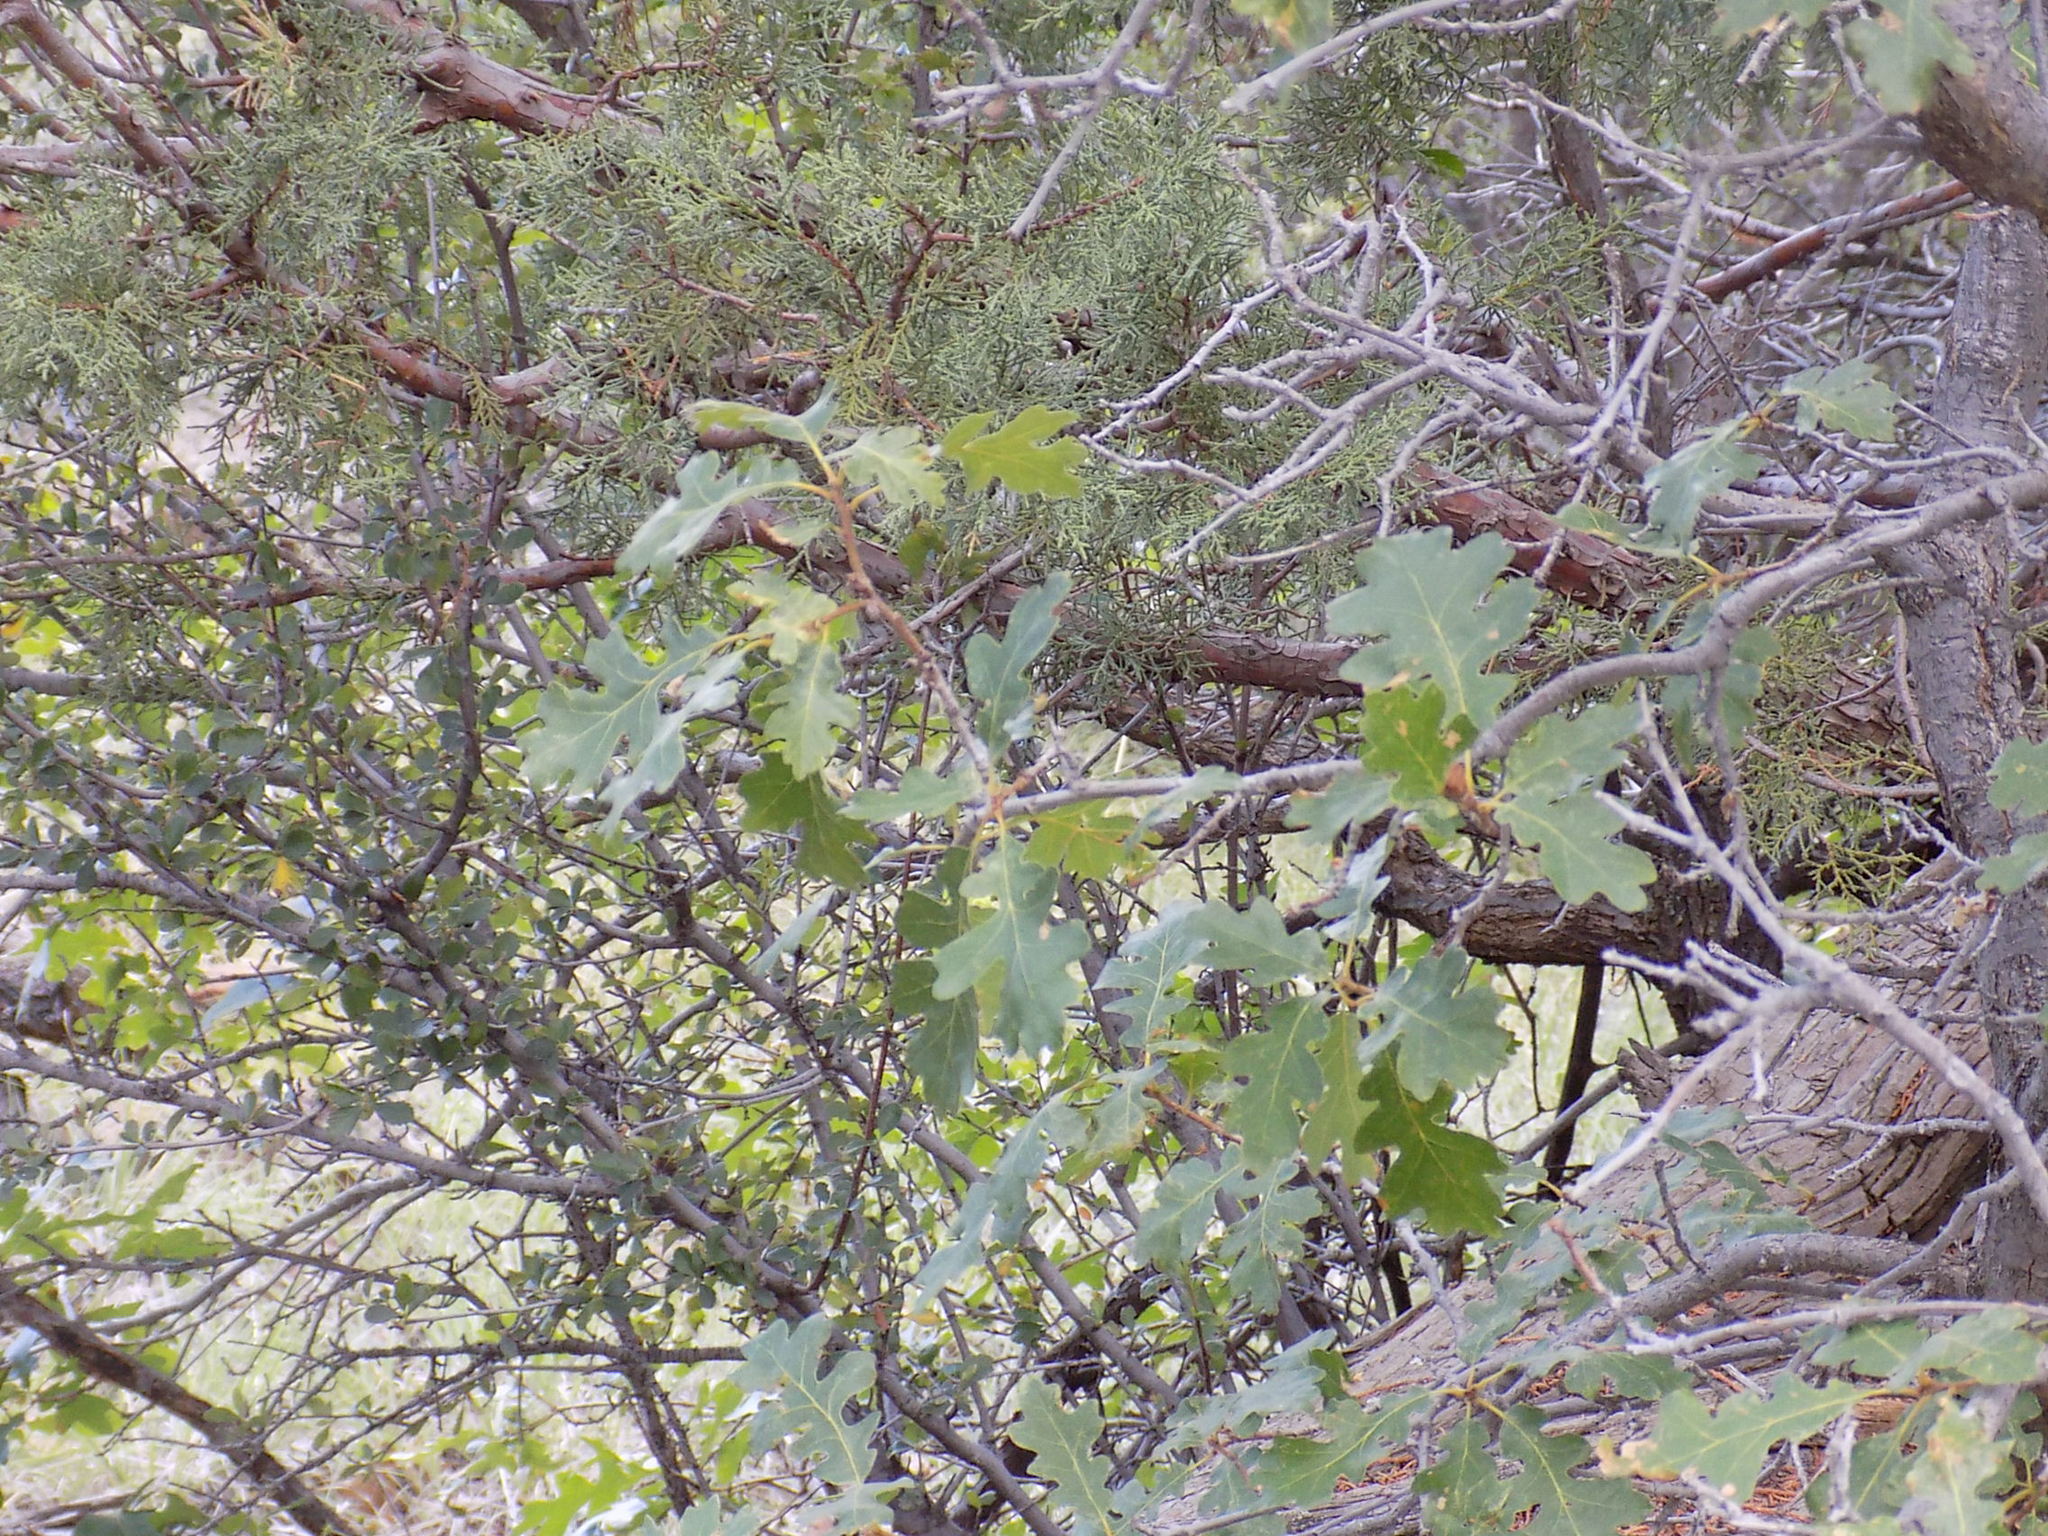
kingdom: Plantae
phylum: Tracheophyta
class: Magnoliopsida
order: Fagales
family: Fagaceae
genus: Quercus
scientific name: Quercus gambelii
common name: Gambel oak
